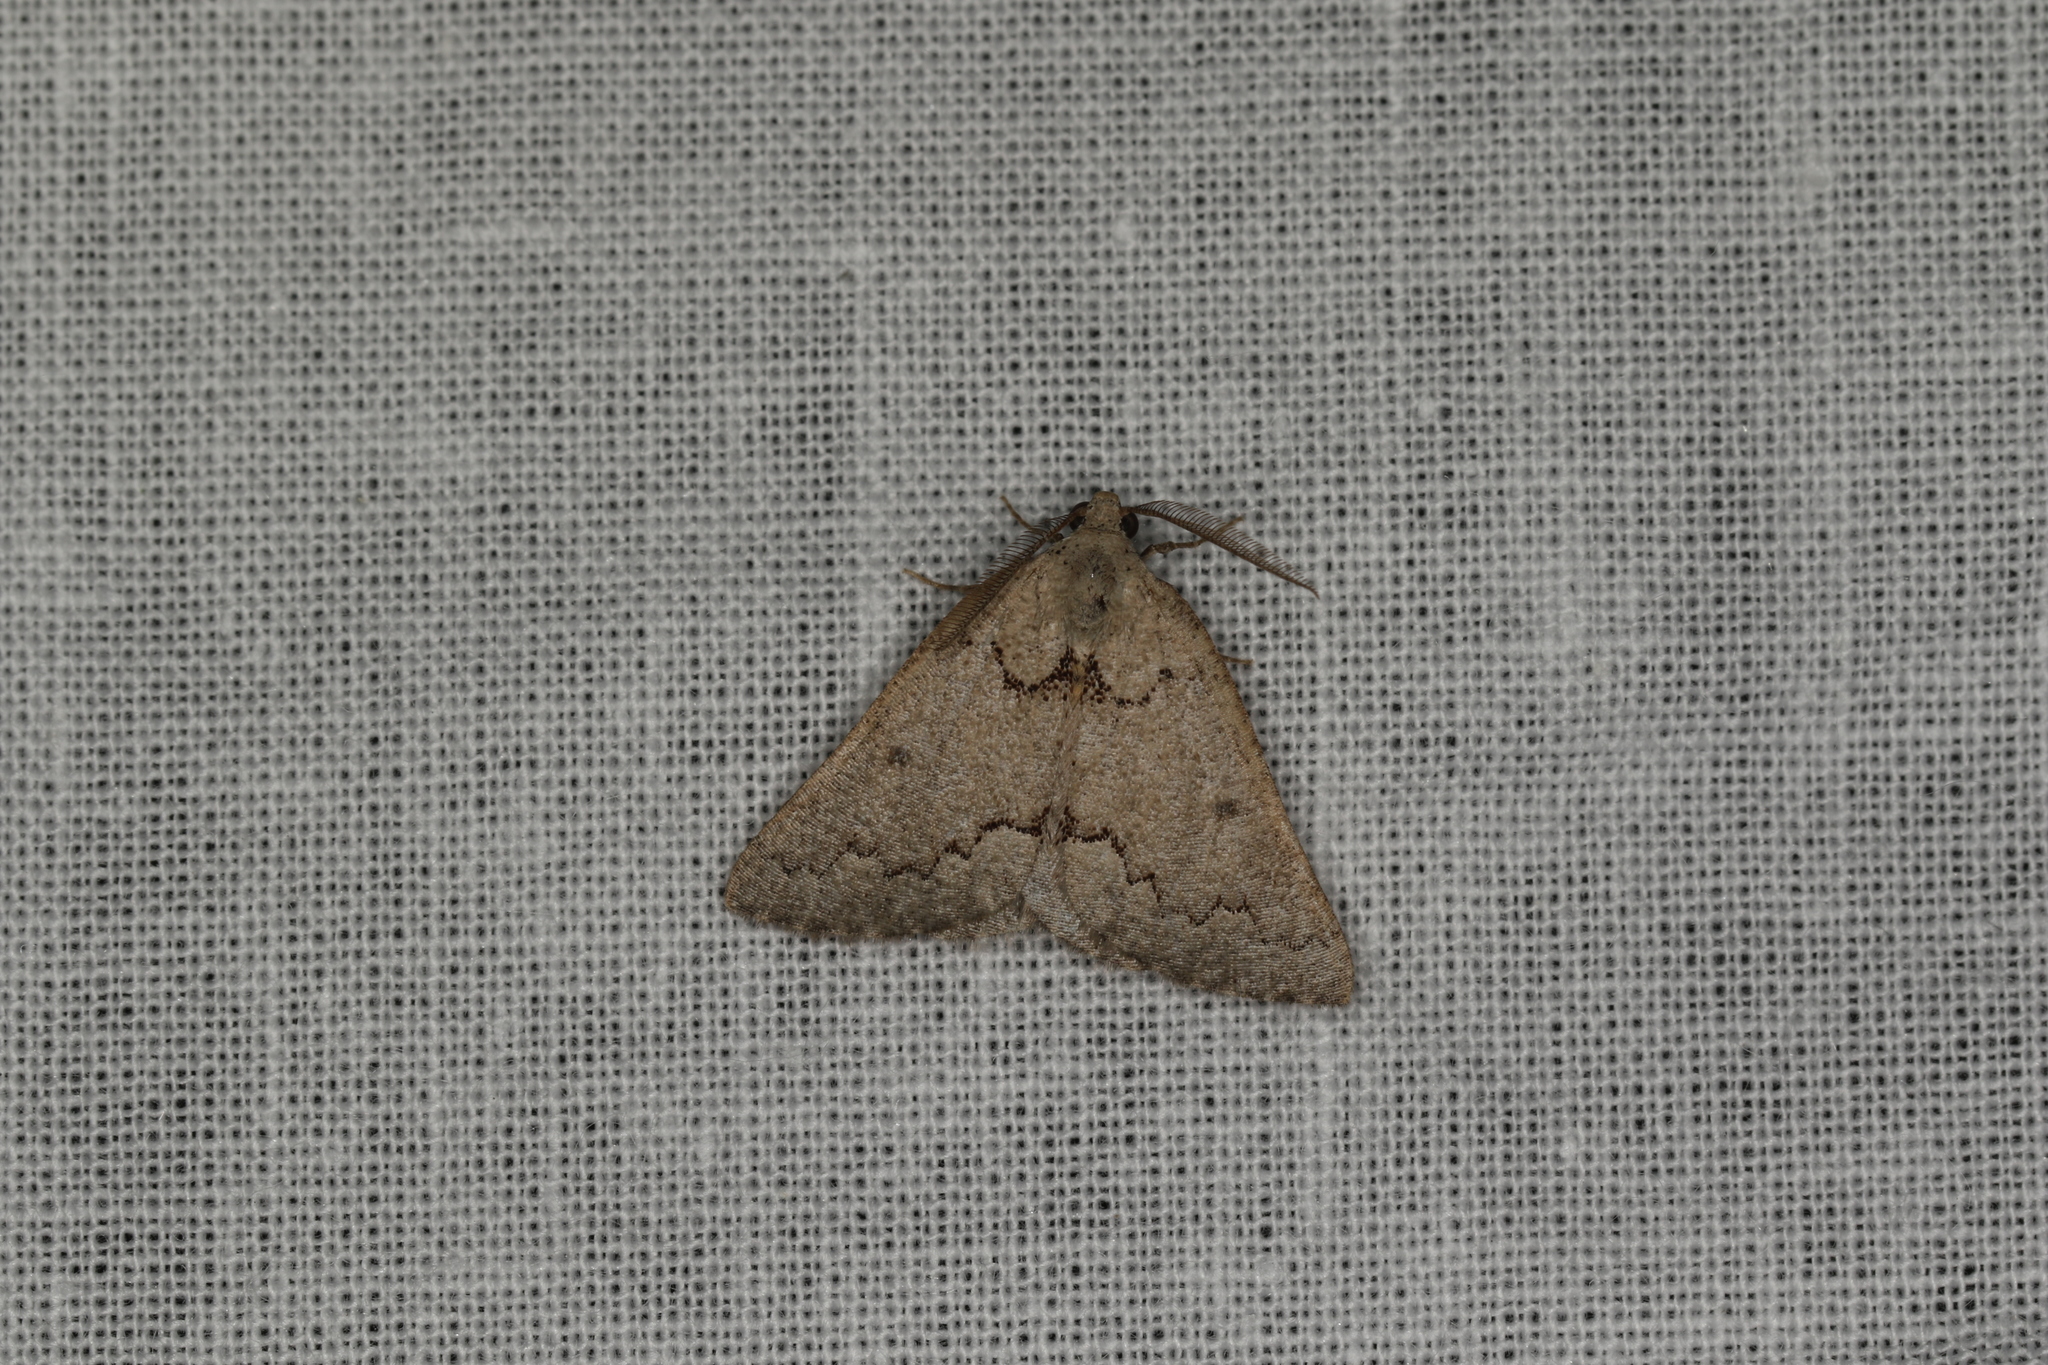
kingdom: Animalia
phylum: Arthropoda
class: Insecta
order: Lepidoptera
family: Geometridae
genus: Amelora
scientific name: Amelora goniota
